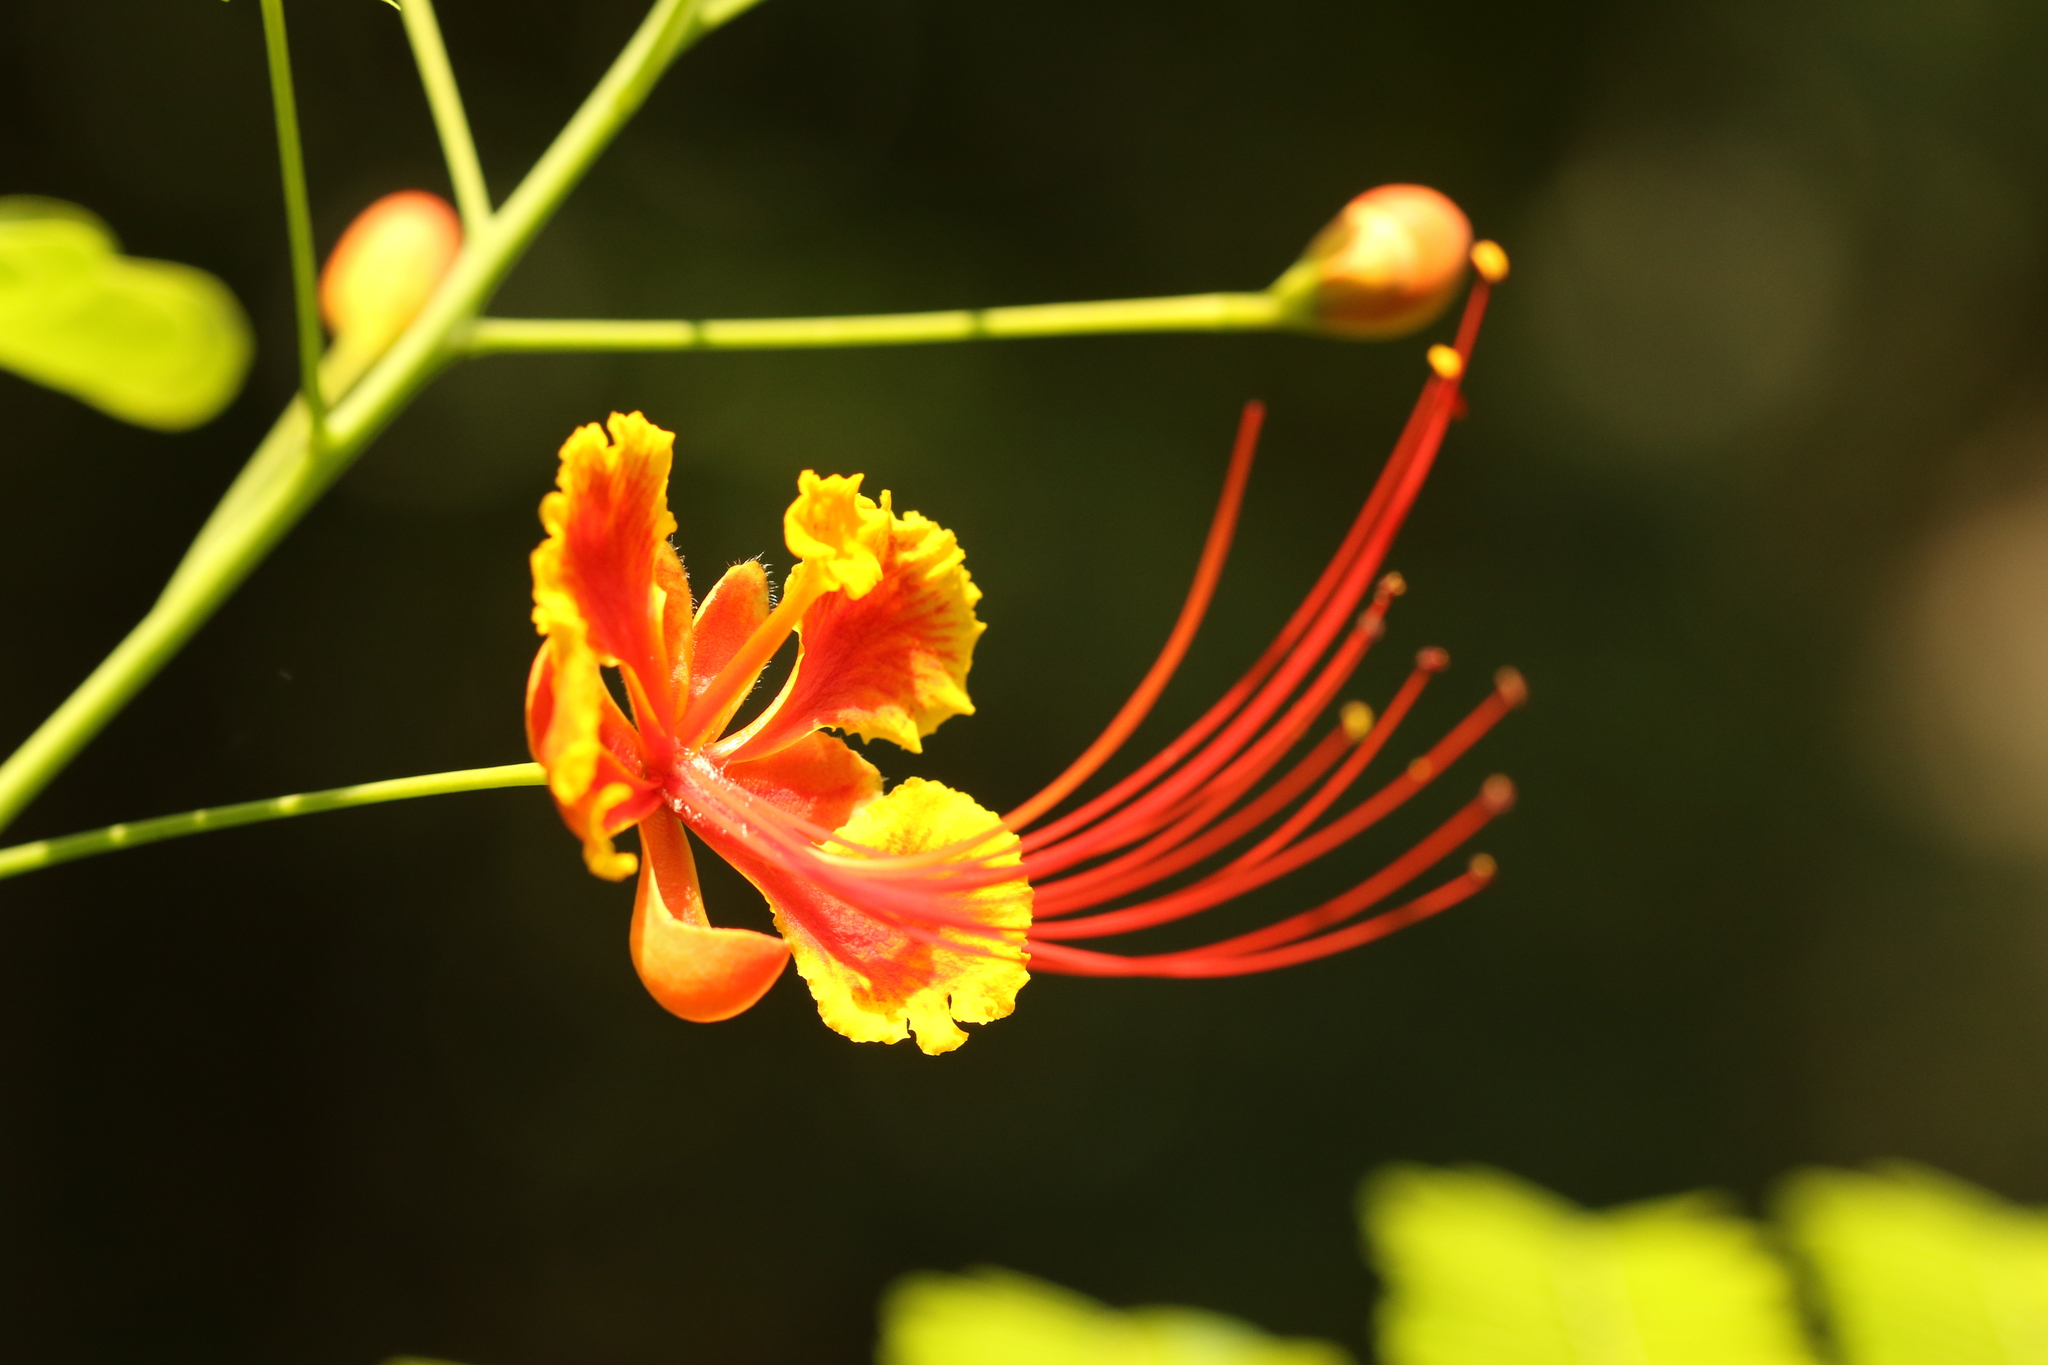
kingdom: Plantae
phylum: Tracheophyta
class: Magnoliopsida
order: Fabales
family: Fabaceae
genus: Caesalpinia
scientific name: Caesalpinia pulcherrima
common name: Pride-of-barbados
